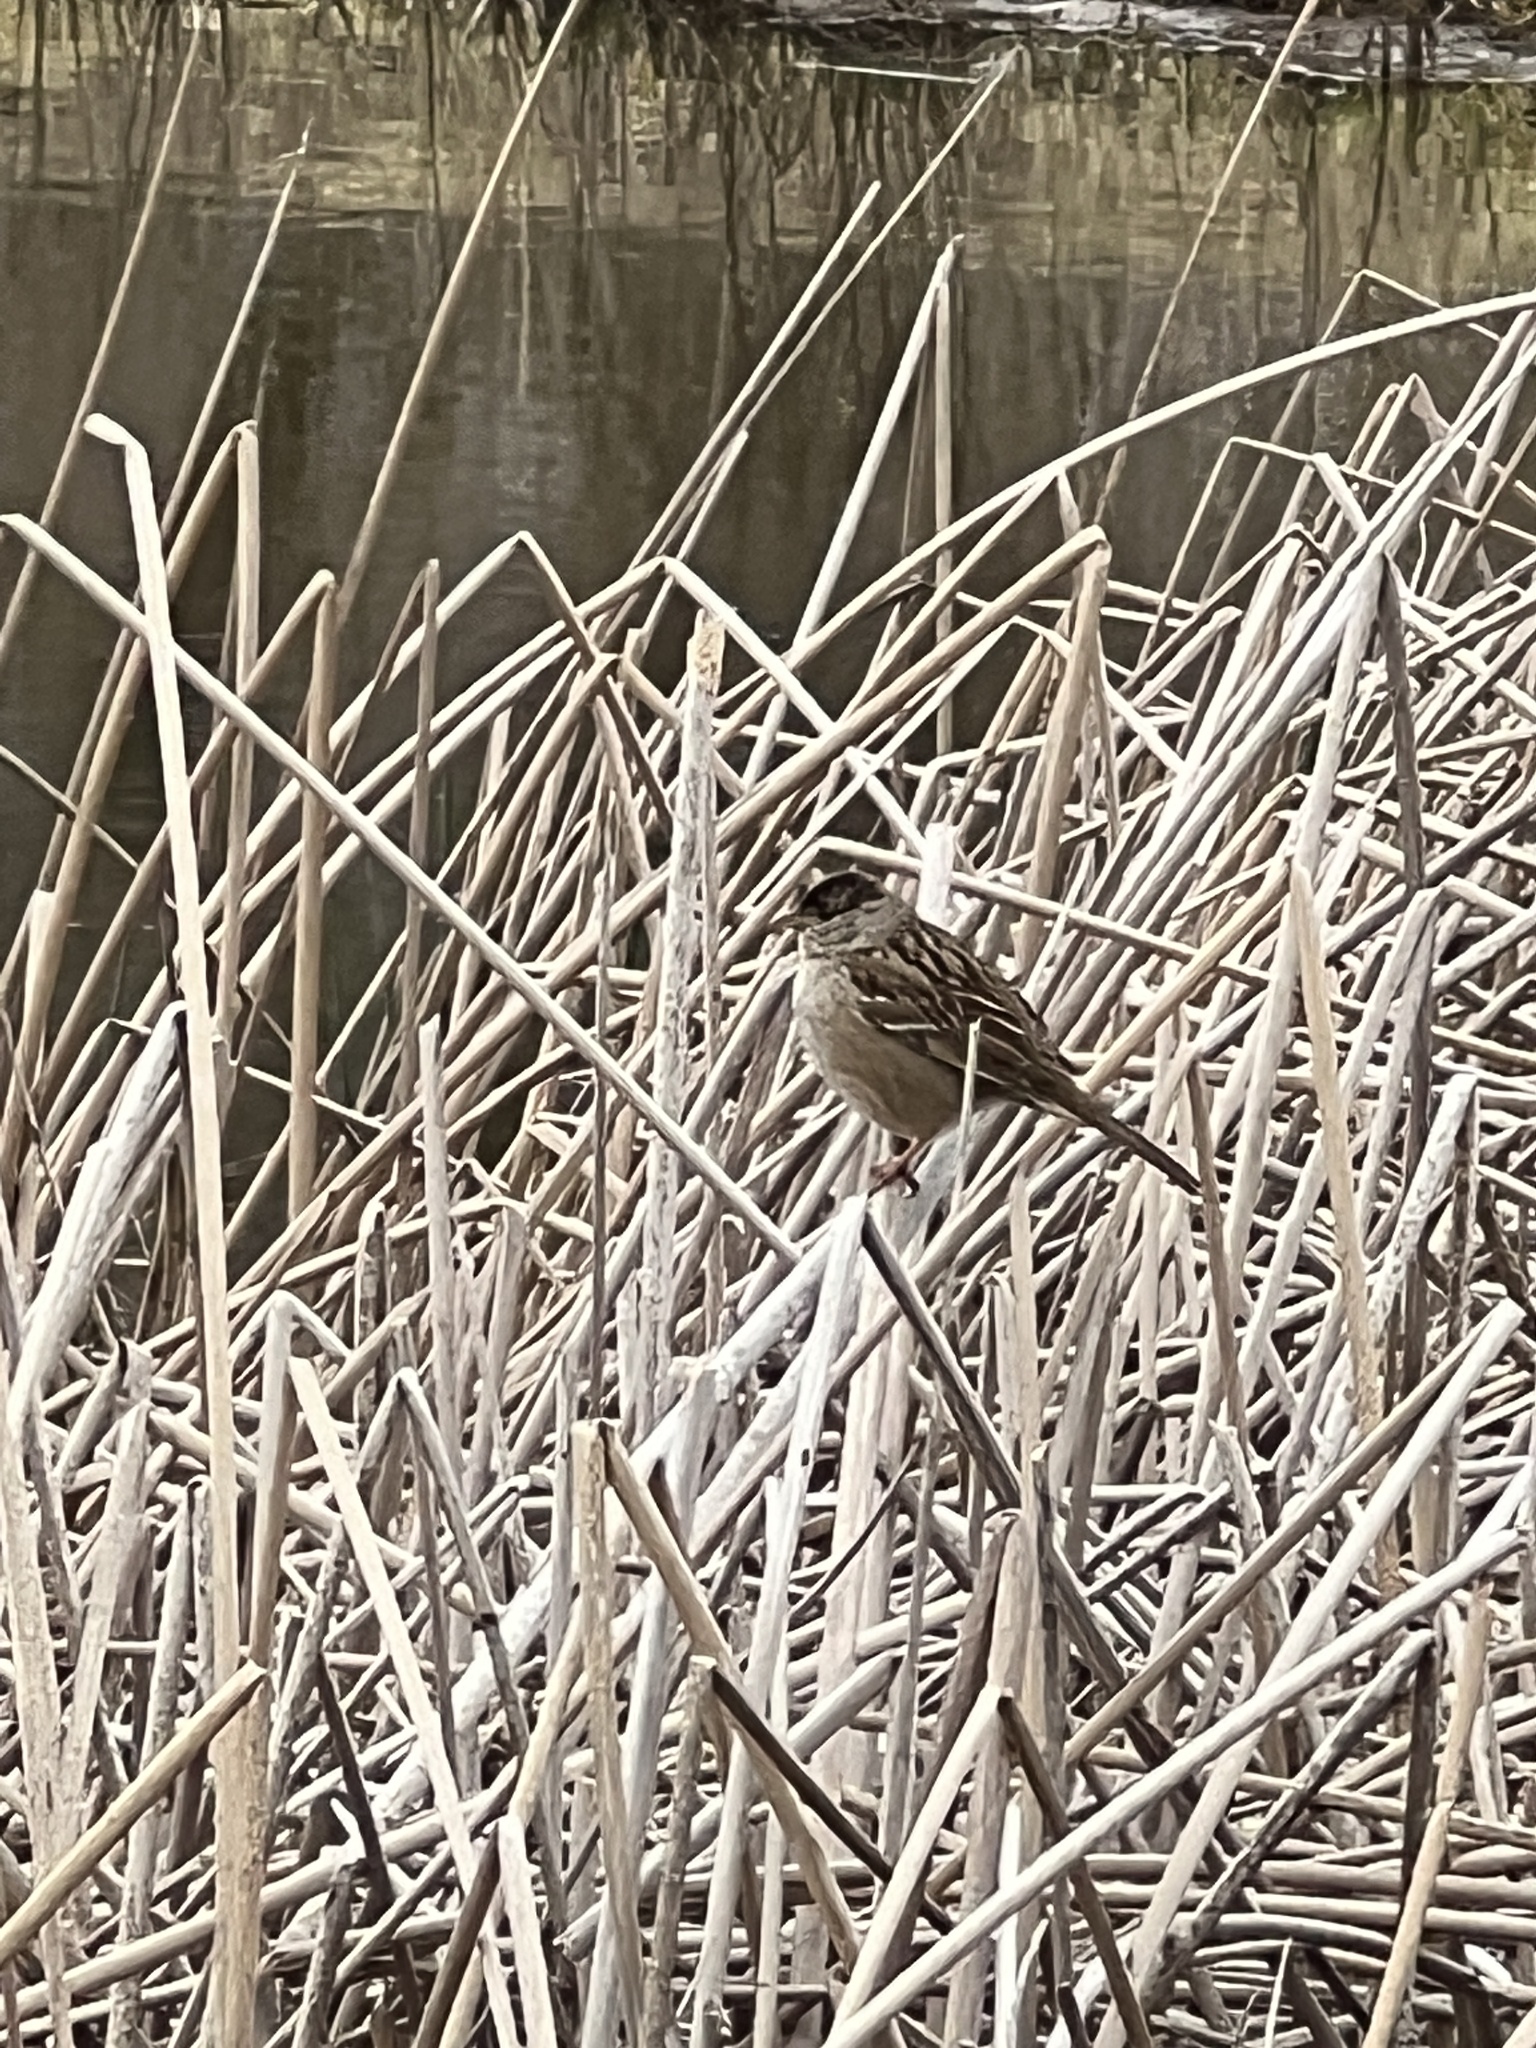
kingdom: Animalia
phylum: Chordata
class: Aves
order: Passeriformes
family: Passerellidae
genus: Zonotrichia
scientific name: Zonotrichia atricapilla
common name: Golden-crowned sparrow
